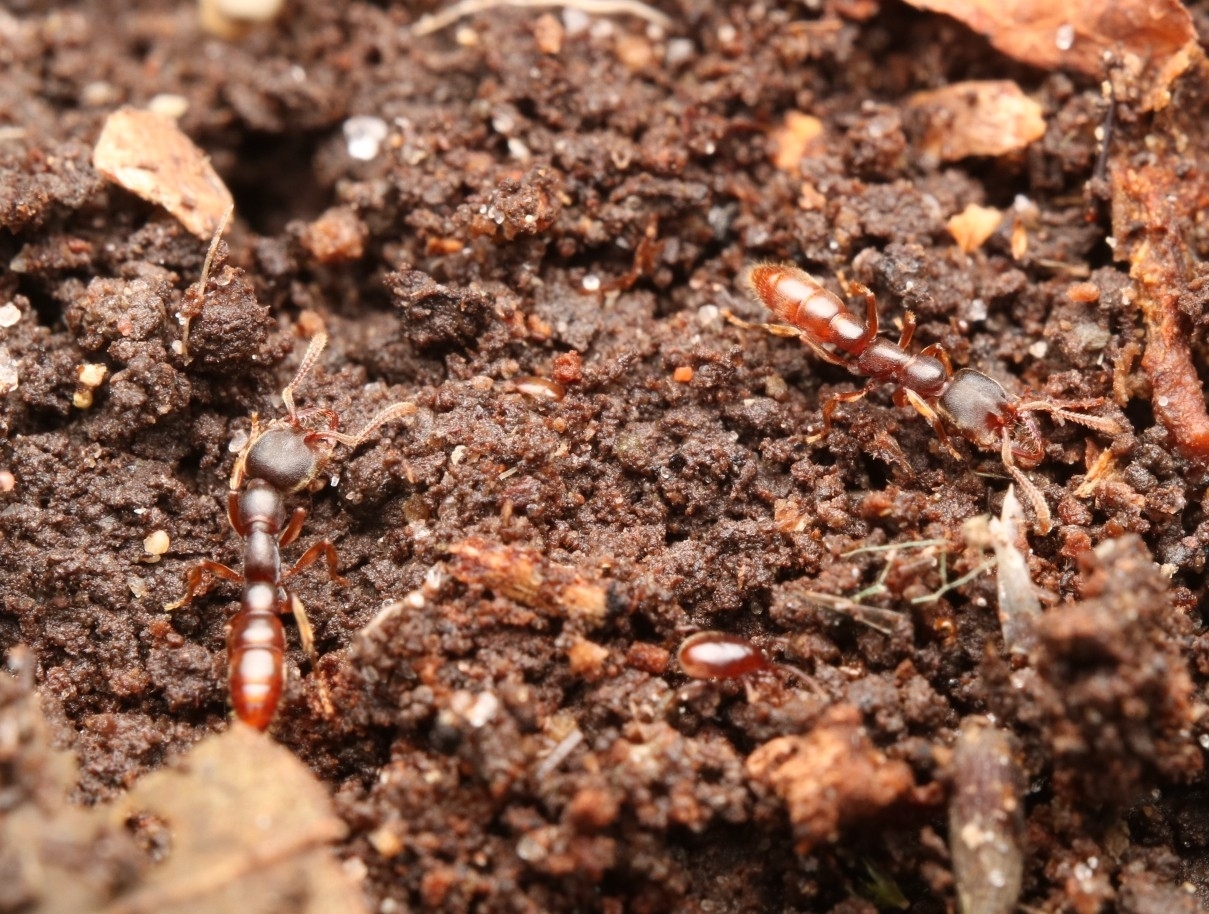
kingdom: Animalia
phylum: Arthropoda
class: Insecta
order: Hymenoptera
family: Formicidae
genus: Stigmatomma
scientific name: Stigmatomma pallipes
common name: Vampire ant
